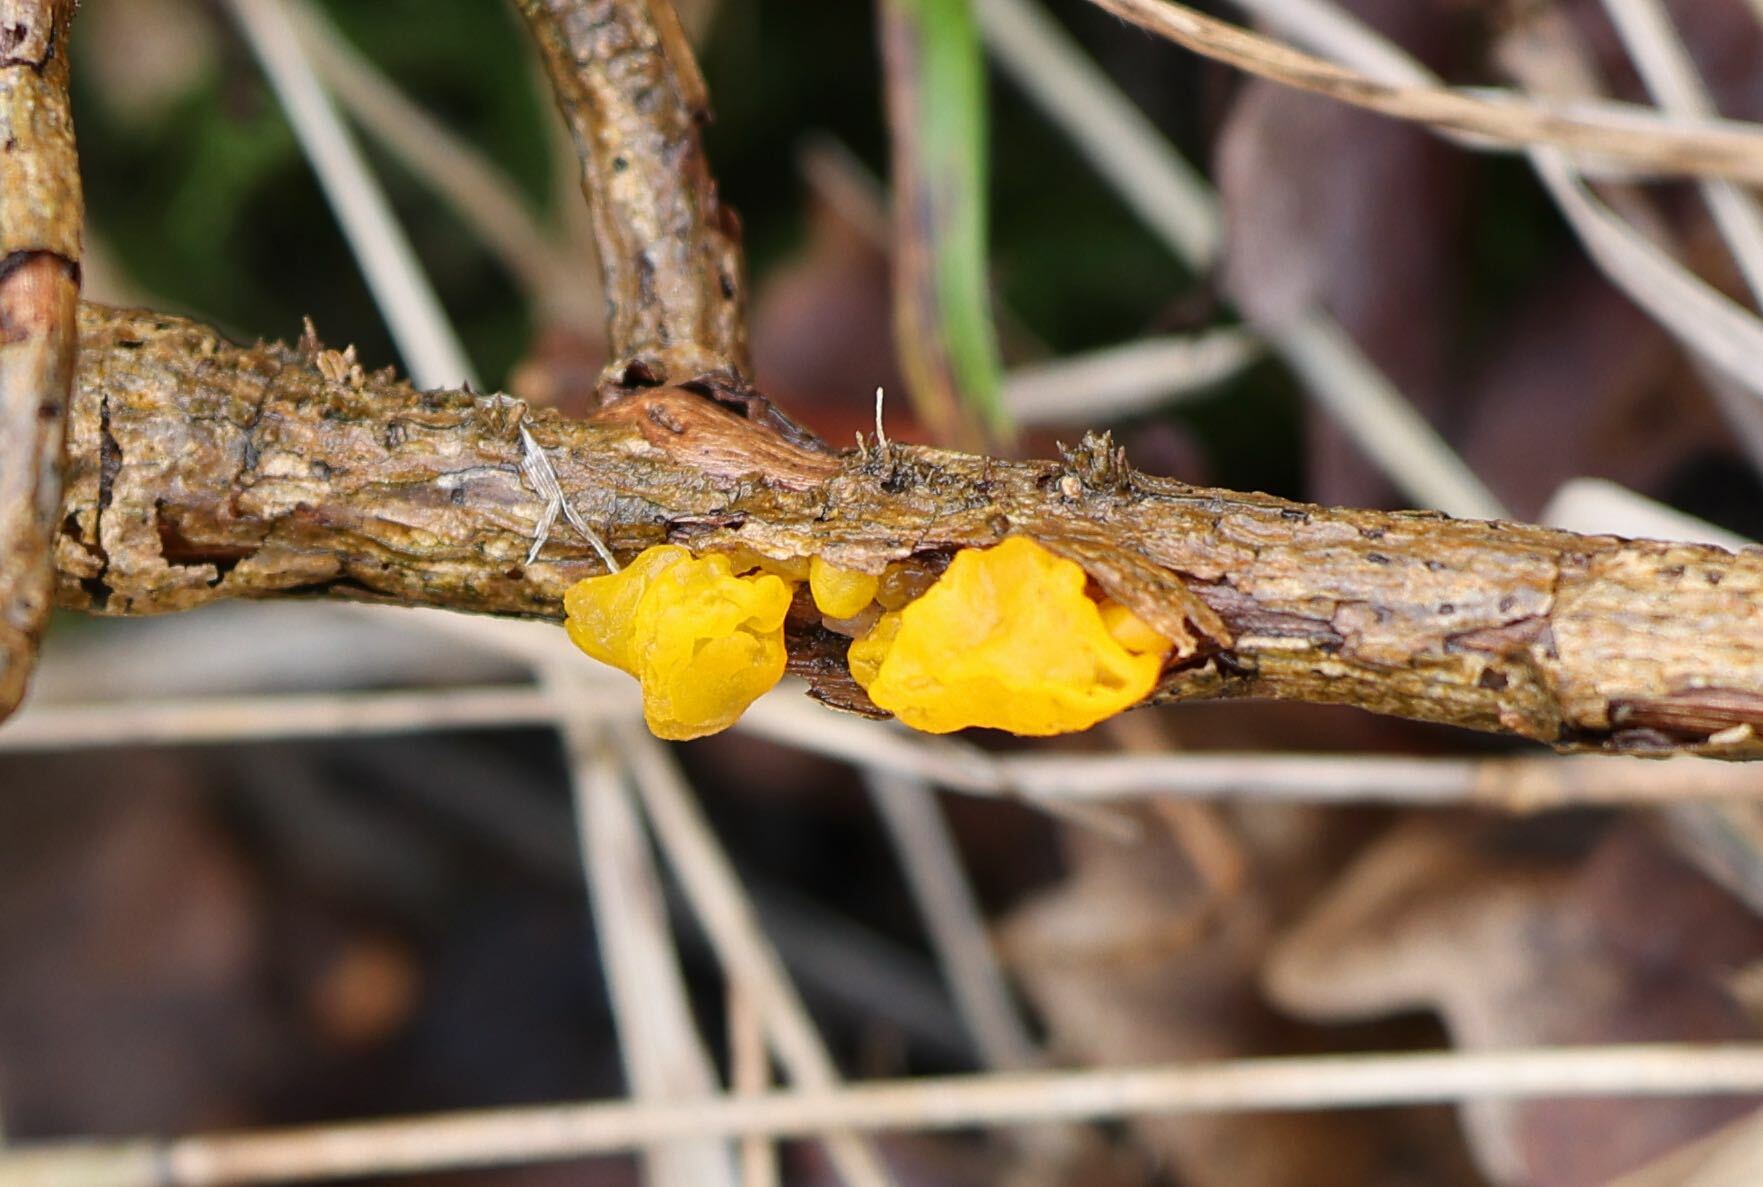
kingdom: Fungi
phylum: Basidiomycota
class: Tremellomycetes
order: Tremellales
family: Tremellaceae
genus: Tremella
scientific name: Tremella mesenterica
